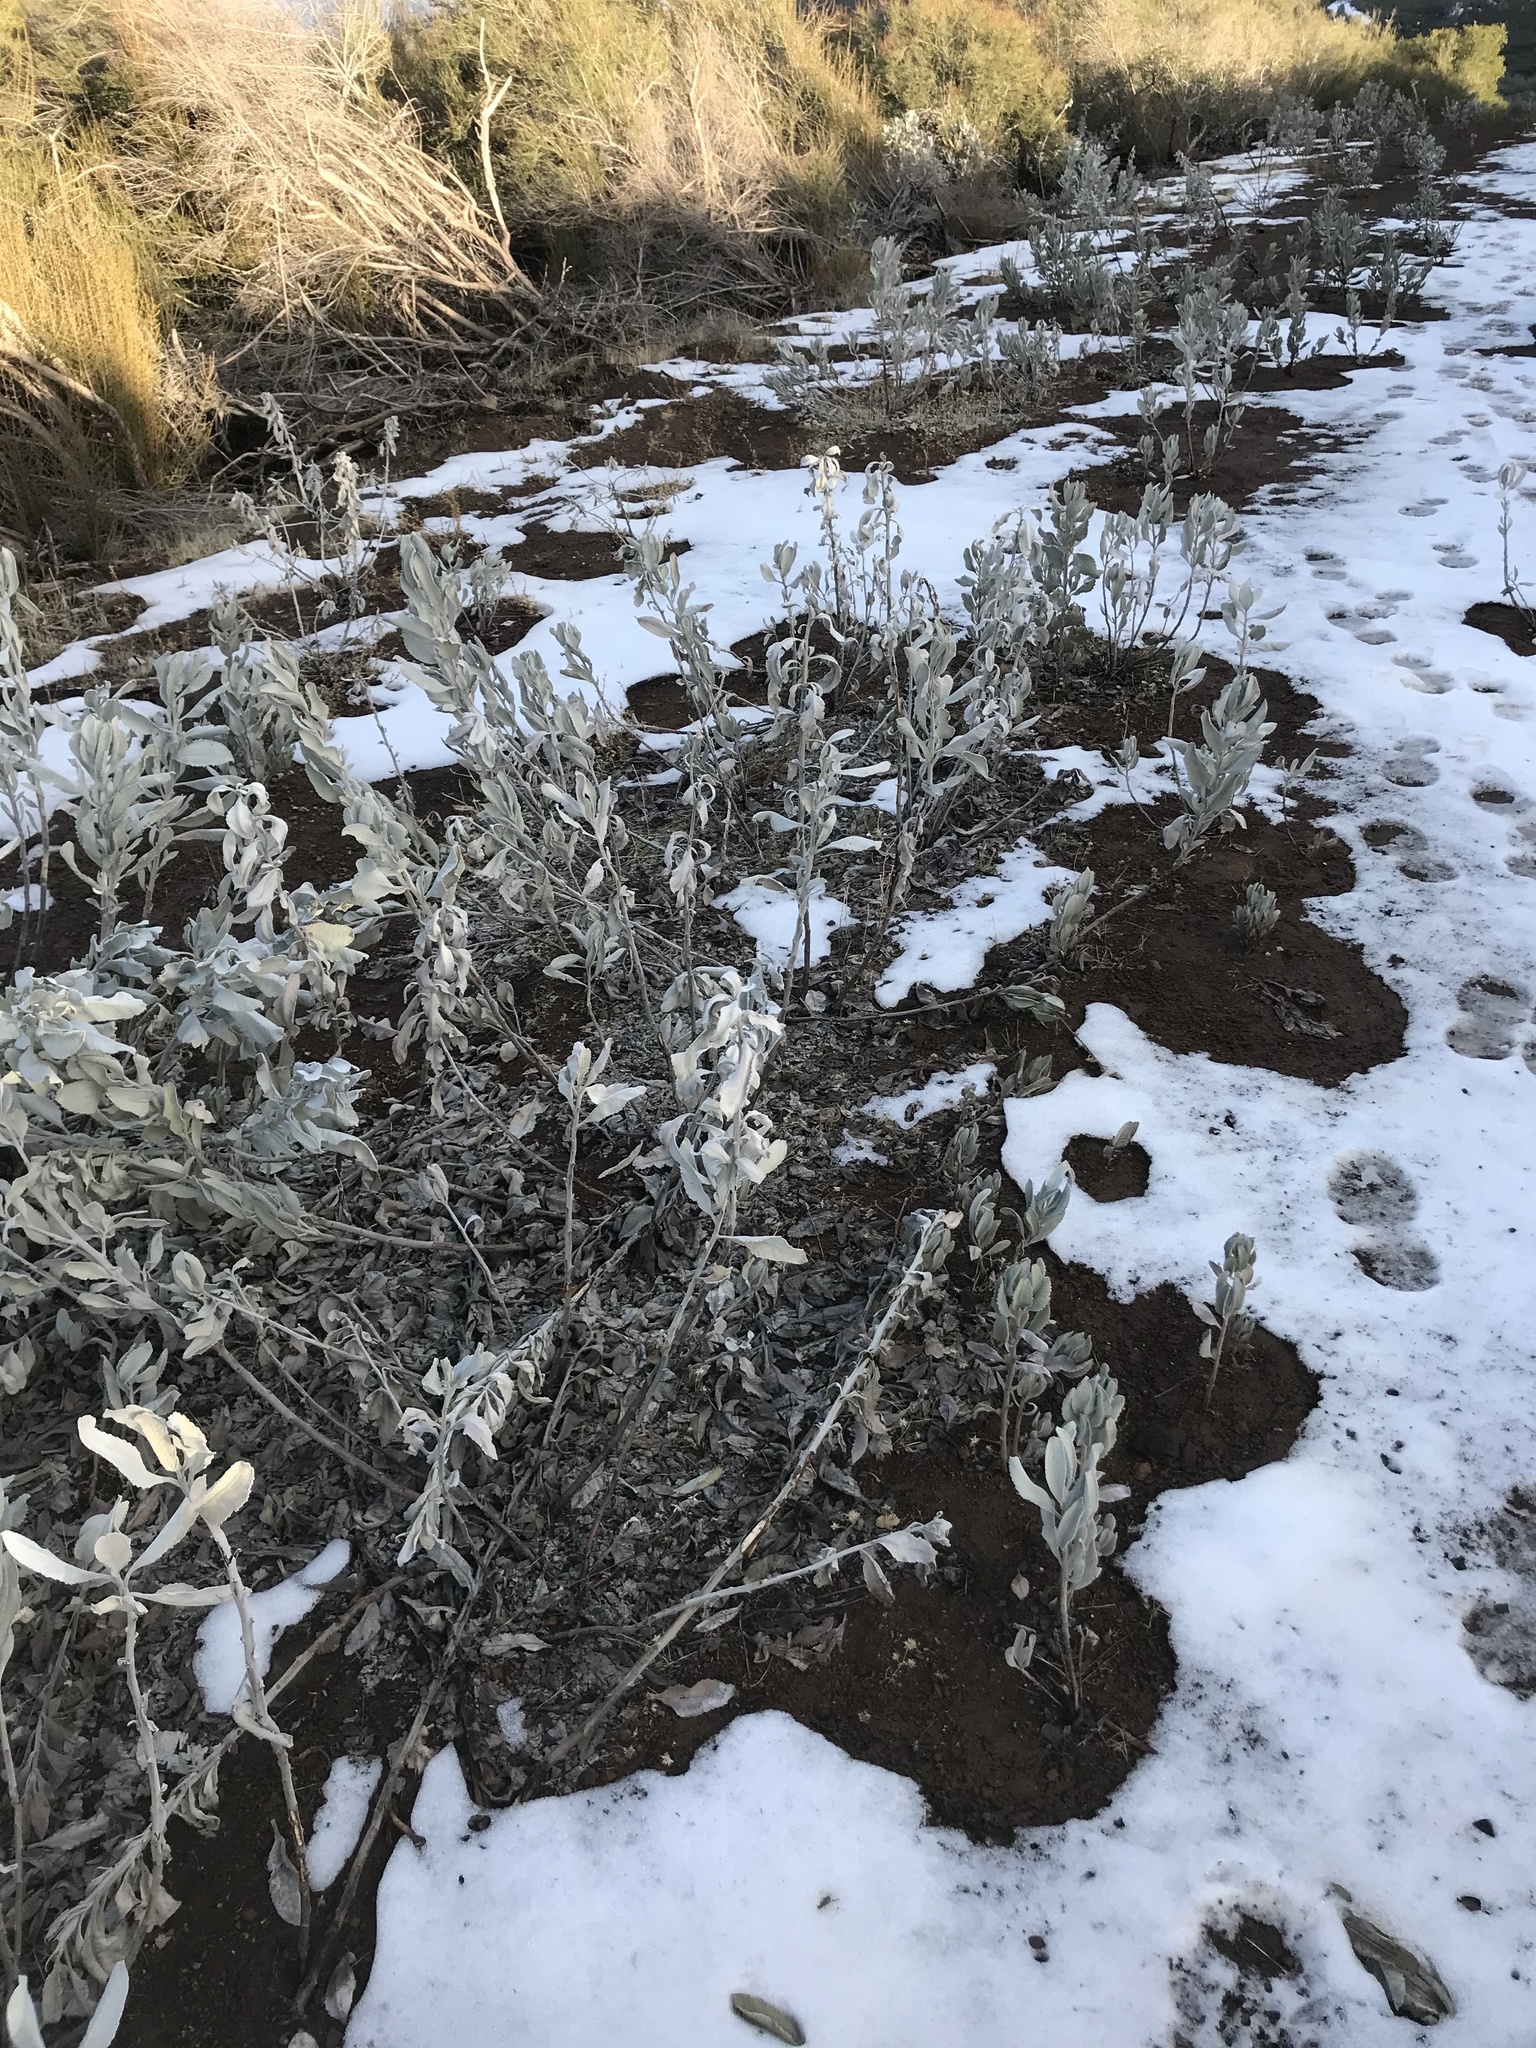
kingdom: Plantae
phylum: Tracheophyta
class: Magnoliopsida
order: Boraginales
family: Namaceae
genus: Eriodictyon
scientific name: Eriodictyon tomentosum
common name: Woolly yerba-santa
